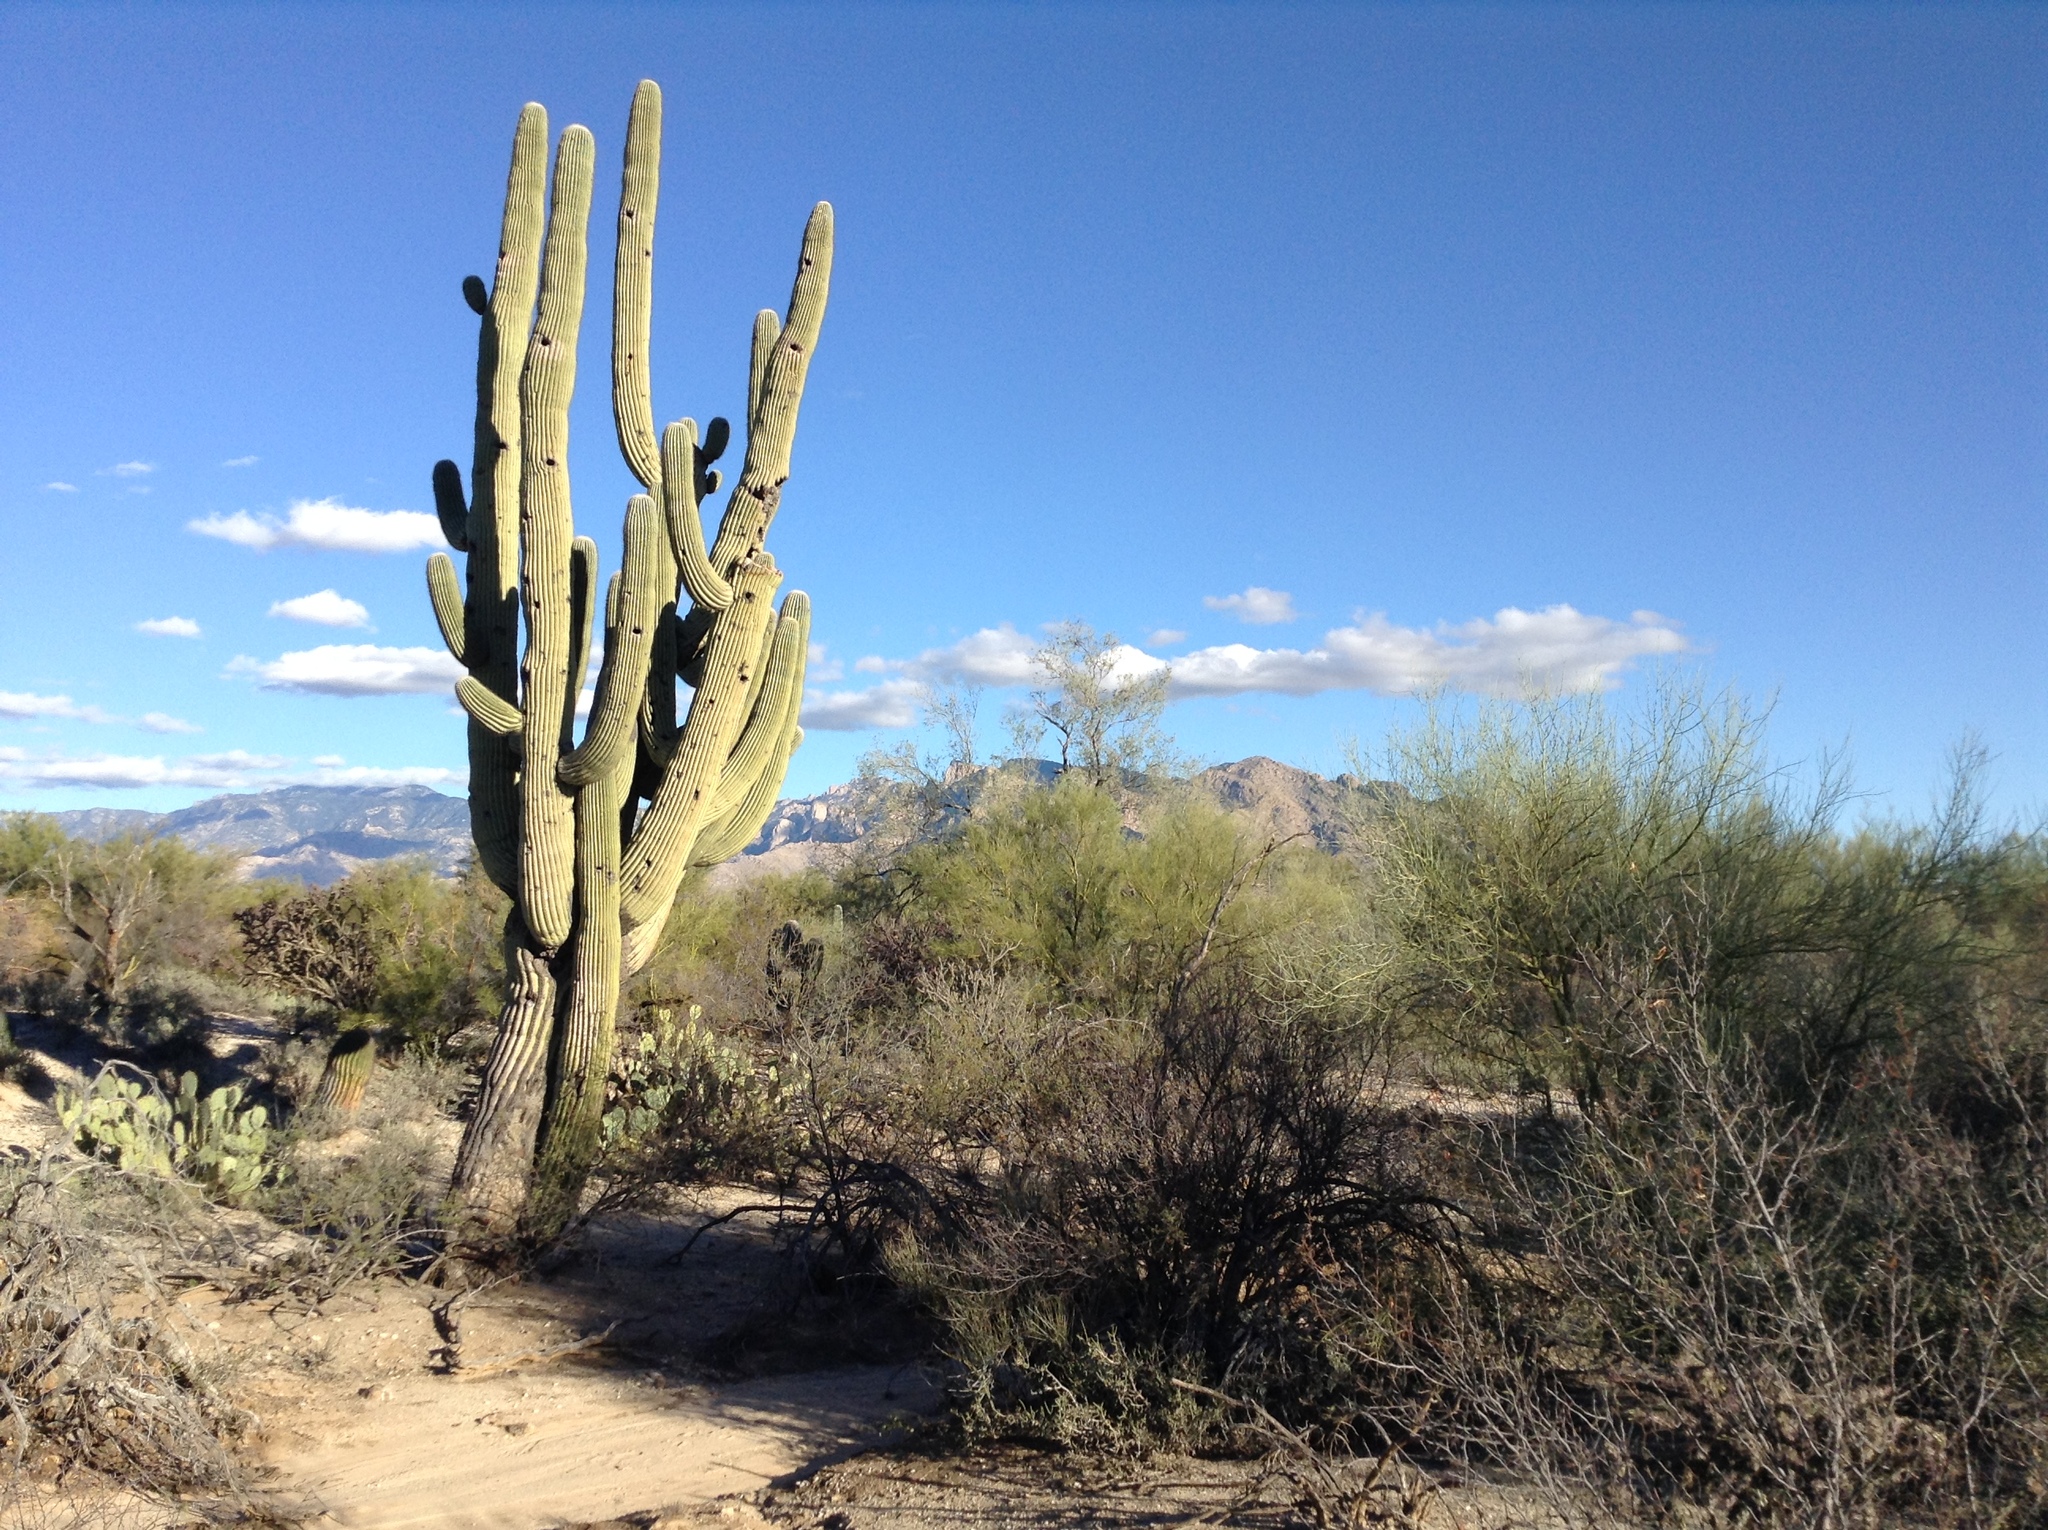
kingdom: Plantae
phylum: Tracheophyta
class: Magnoliopsida
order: Caryophyllales
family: Cactaceae
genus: Carnegiea
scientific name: Carnegiea gigantea
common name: Saguaro
